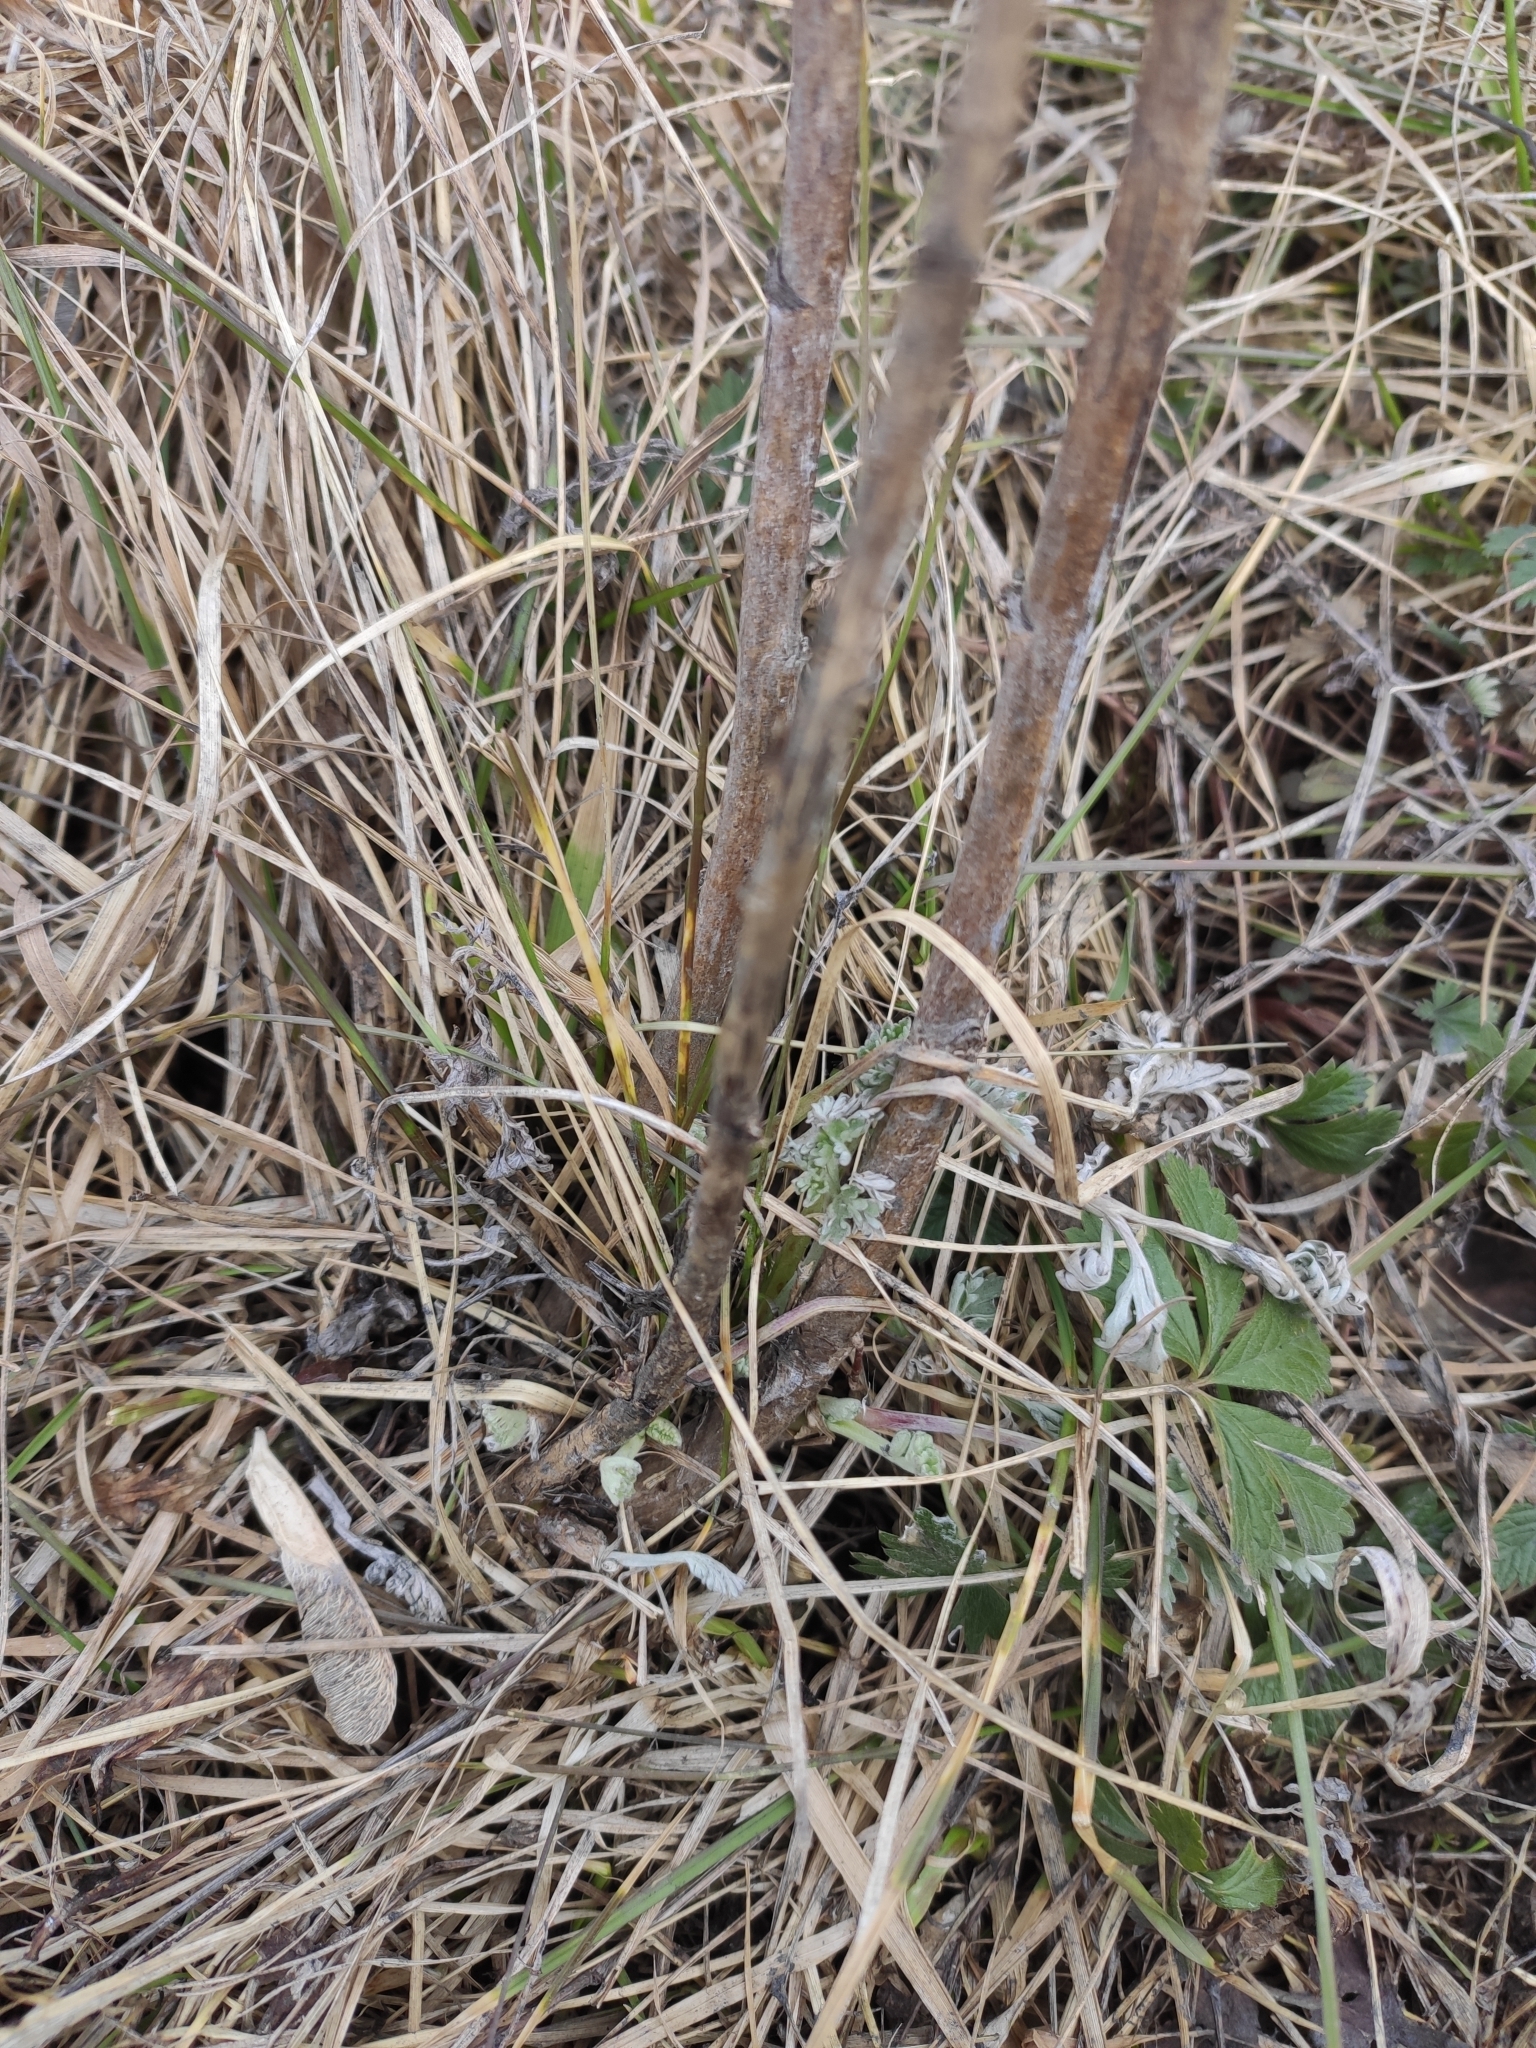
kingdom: Plantae
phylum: Tracheophyta
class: Magnoliopsida
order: Asterales
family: Asteraceae
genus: Artemisia
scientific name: Artemisia absinthium
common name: Wormwood
